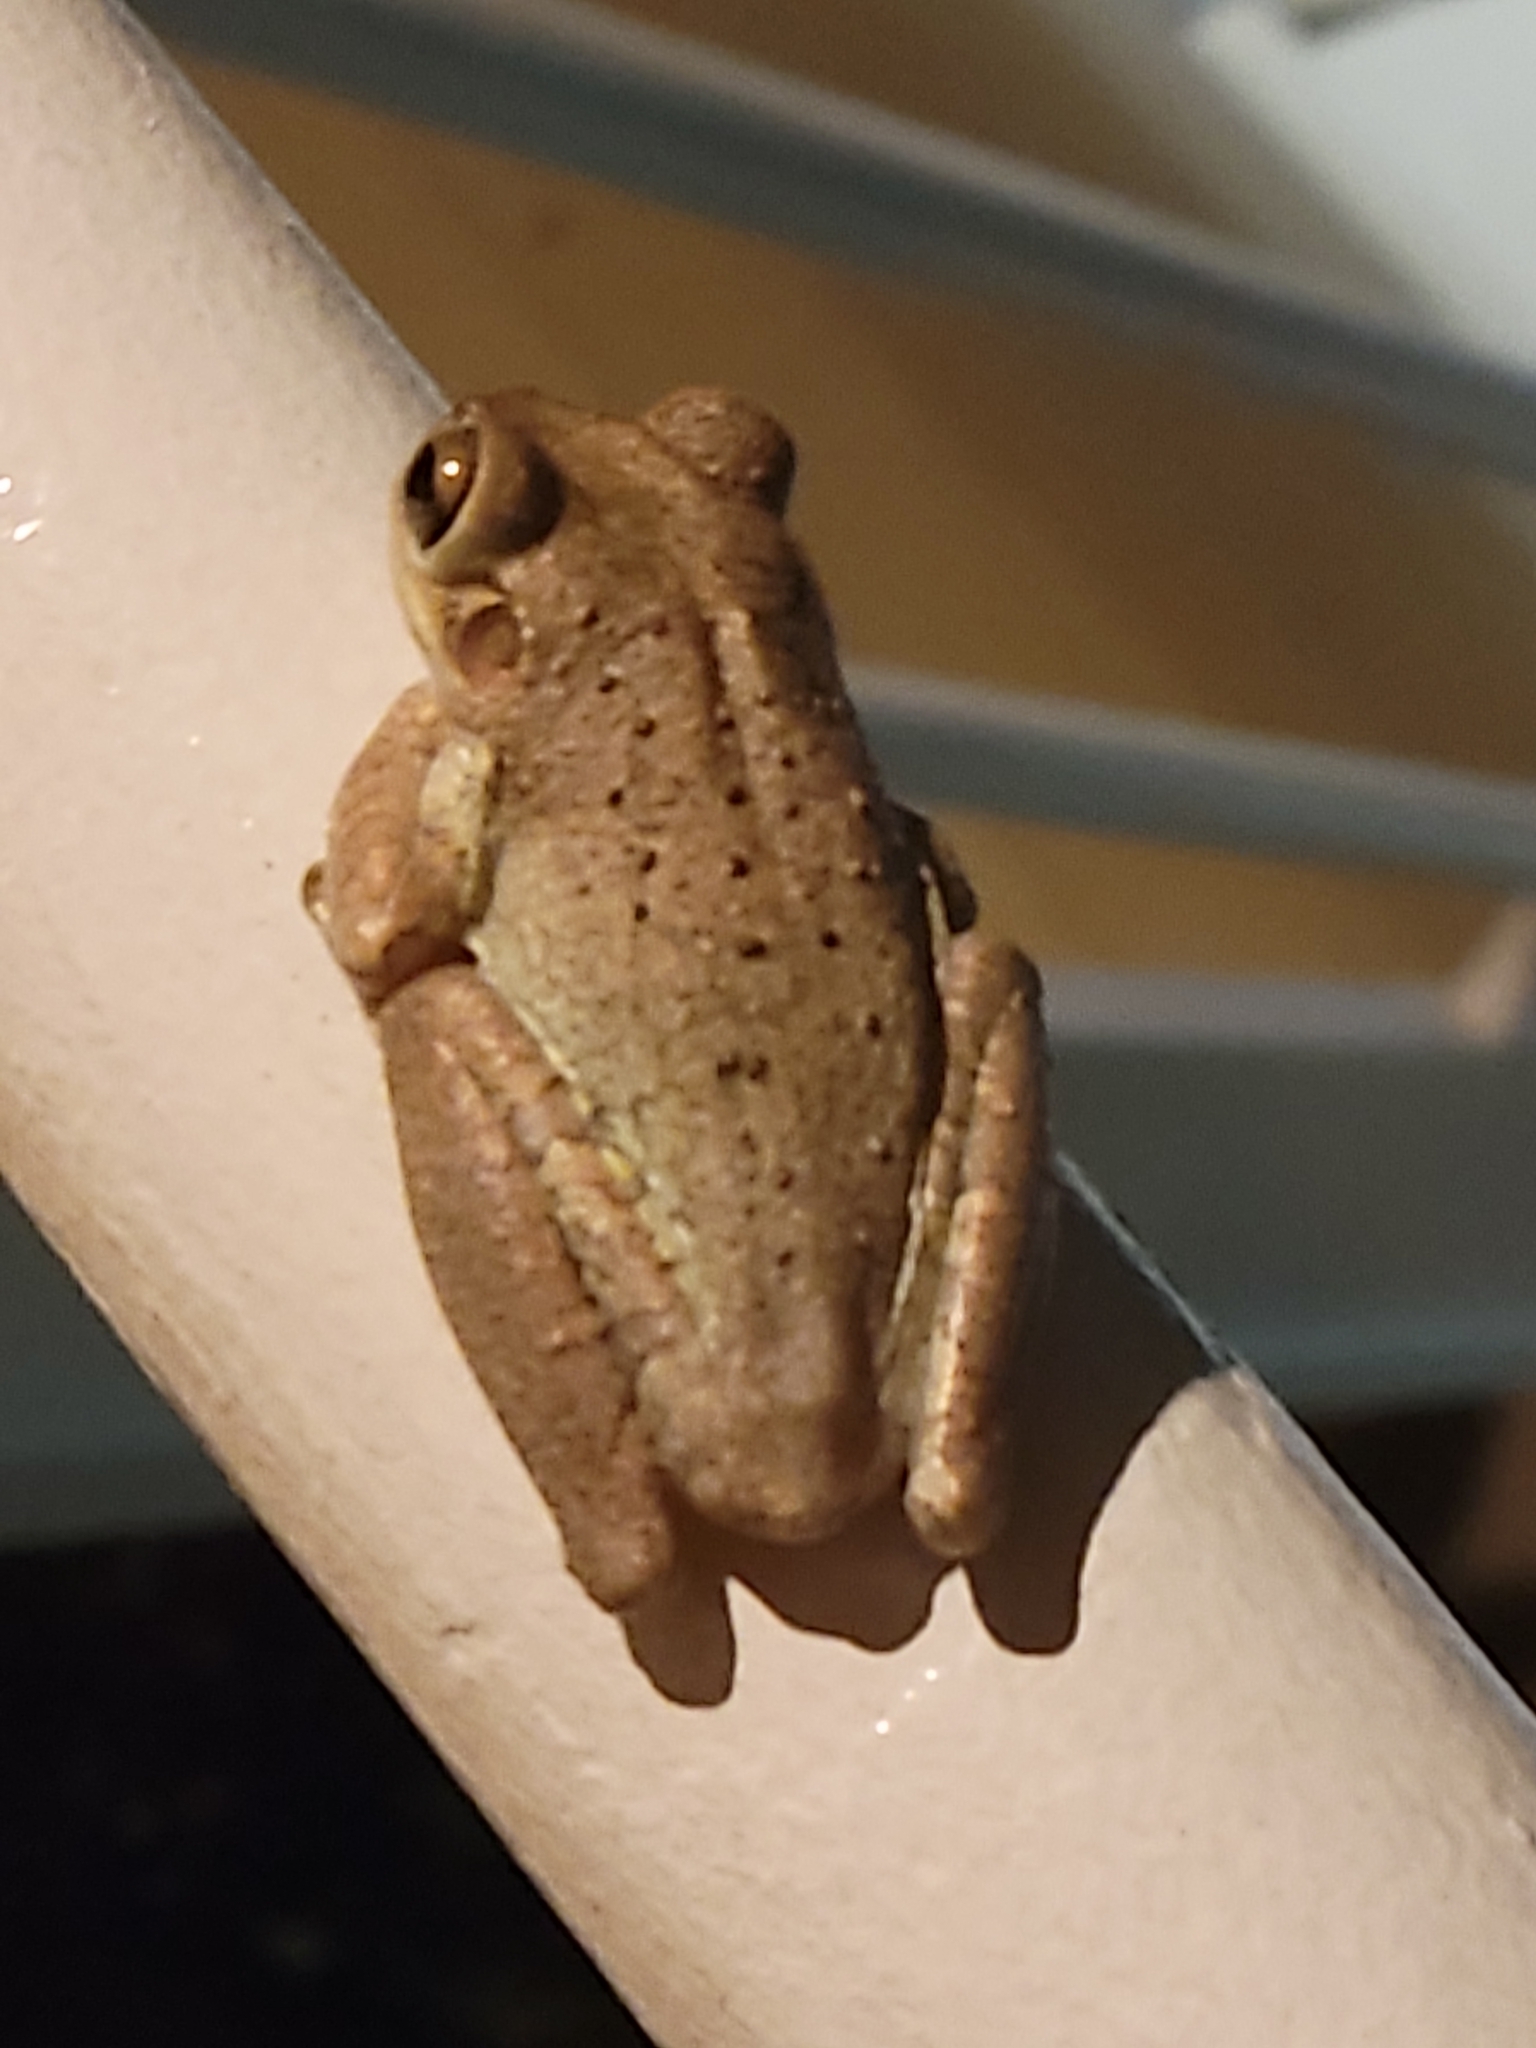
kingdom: Animalia
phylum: Chordata
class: Amphibia
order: Anura
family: Hylidae
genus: Osteopilus
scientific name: Osteopilus septentrionalis
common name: Cuban treefrog
